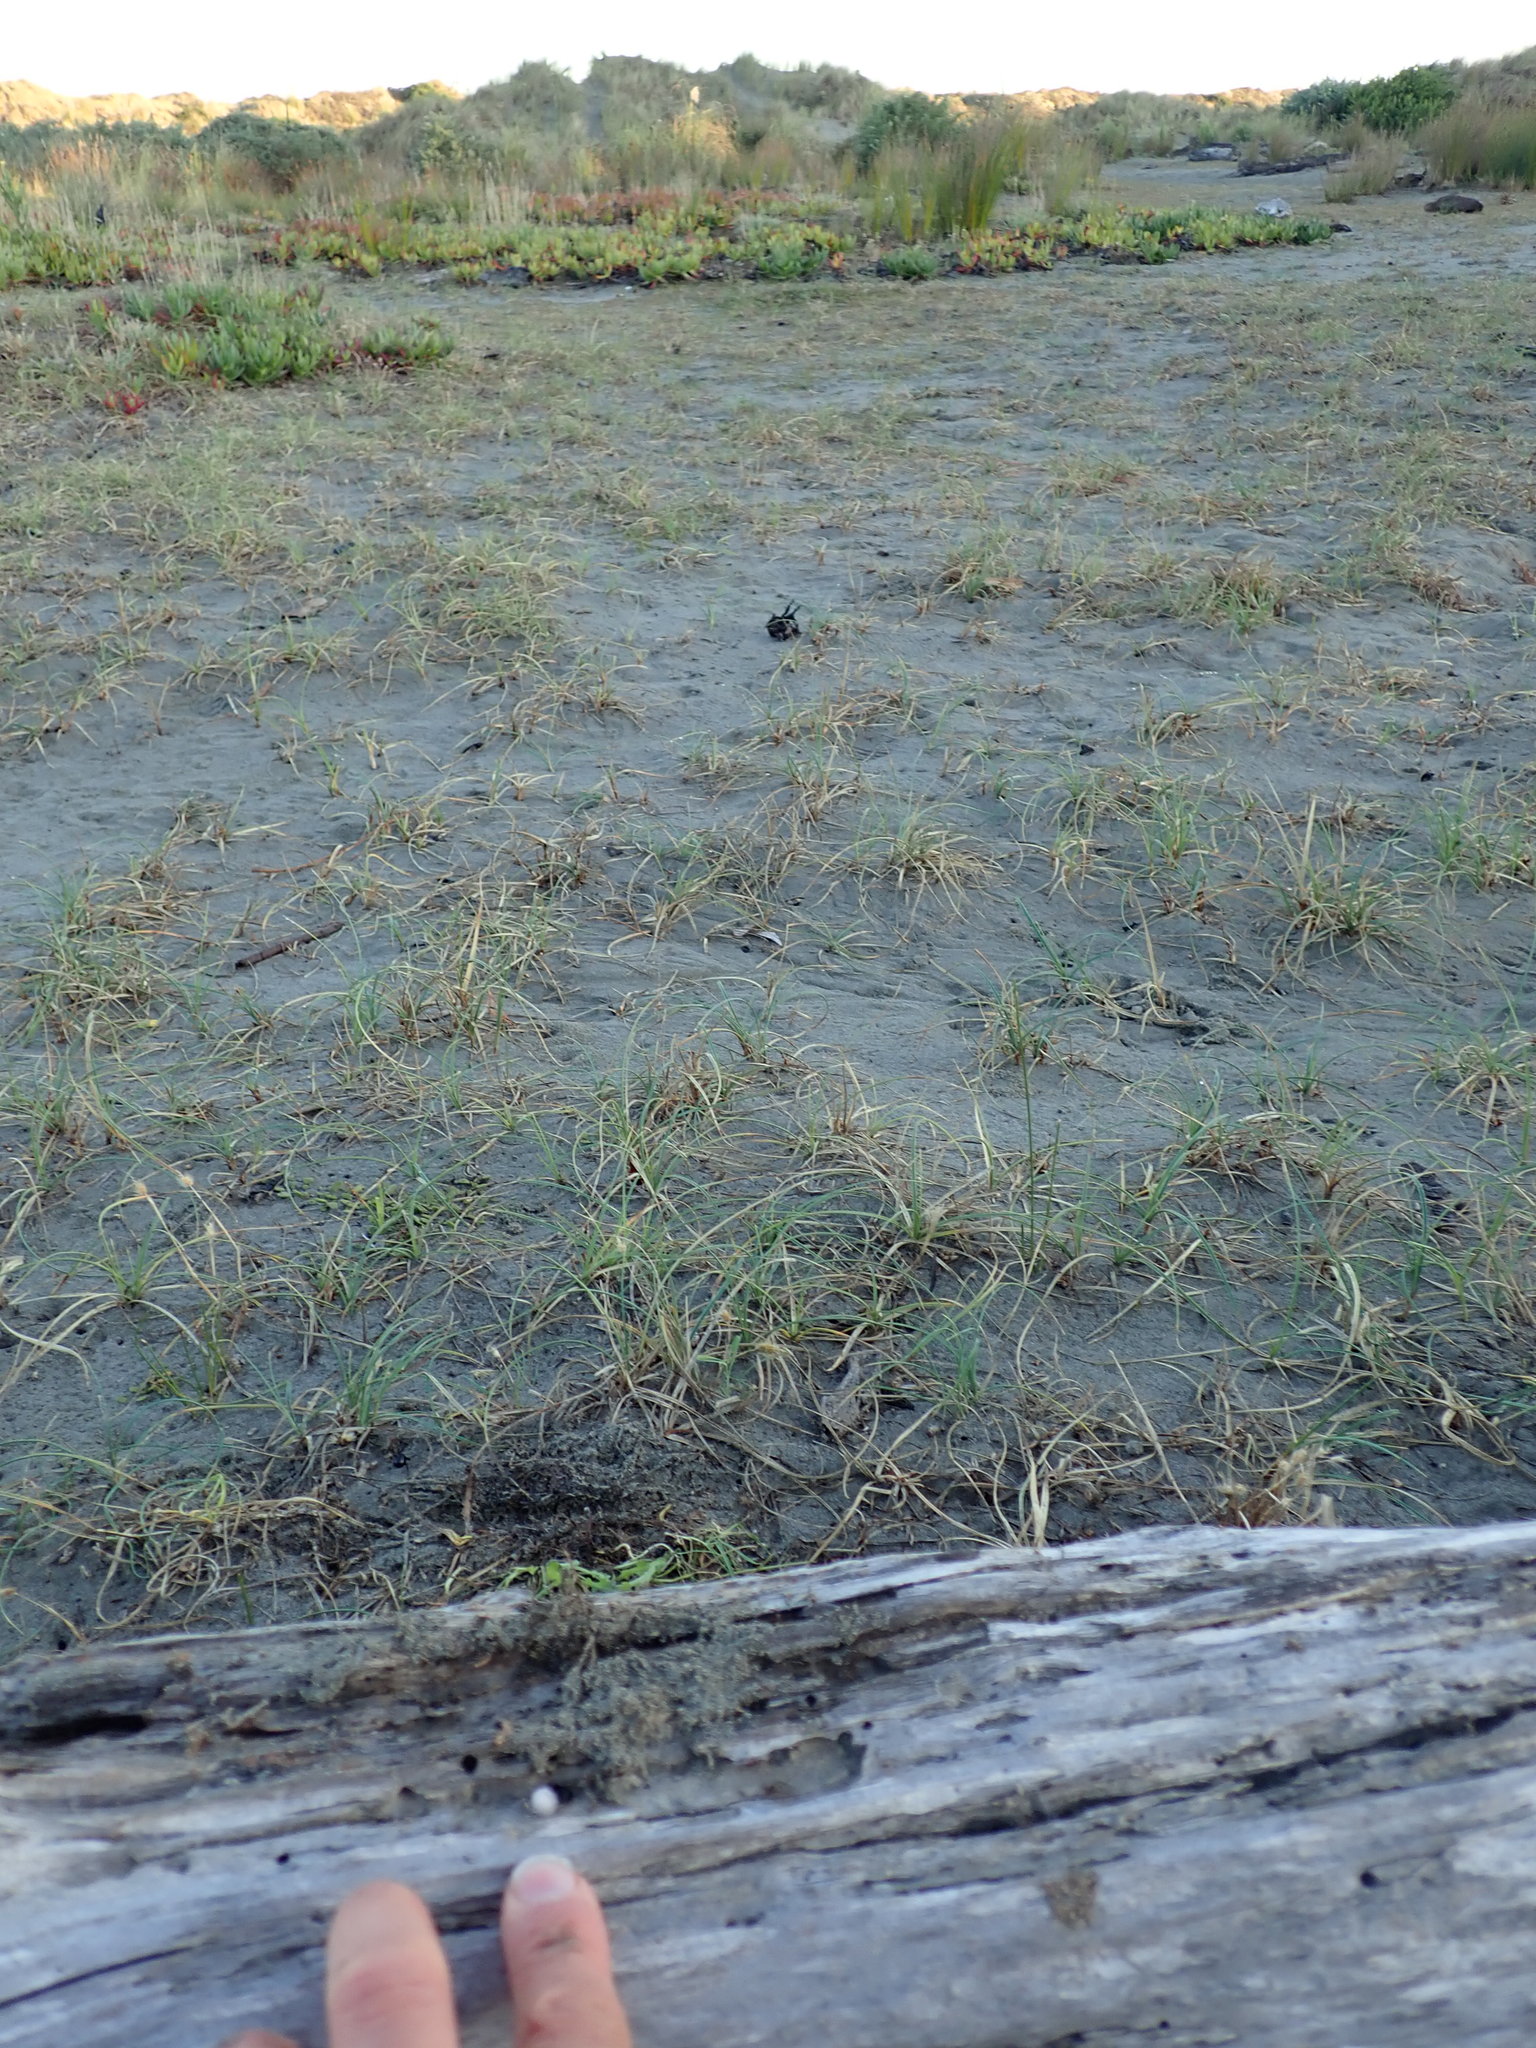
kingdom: Animalia
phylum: Arthropoda
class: Arachnida
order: Araneae
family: Theridiidae
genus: Steatoda
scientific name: Steatoda capensis
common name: Cobweb weaver
